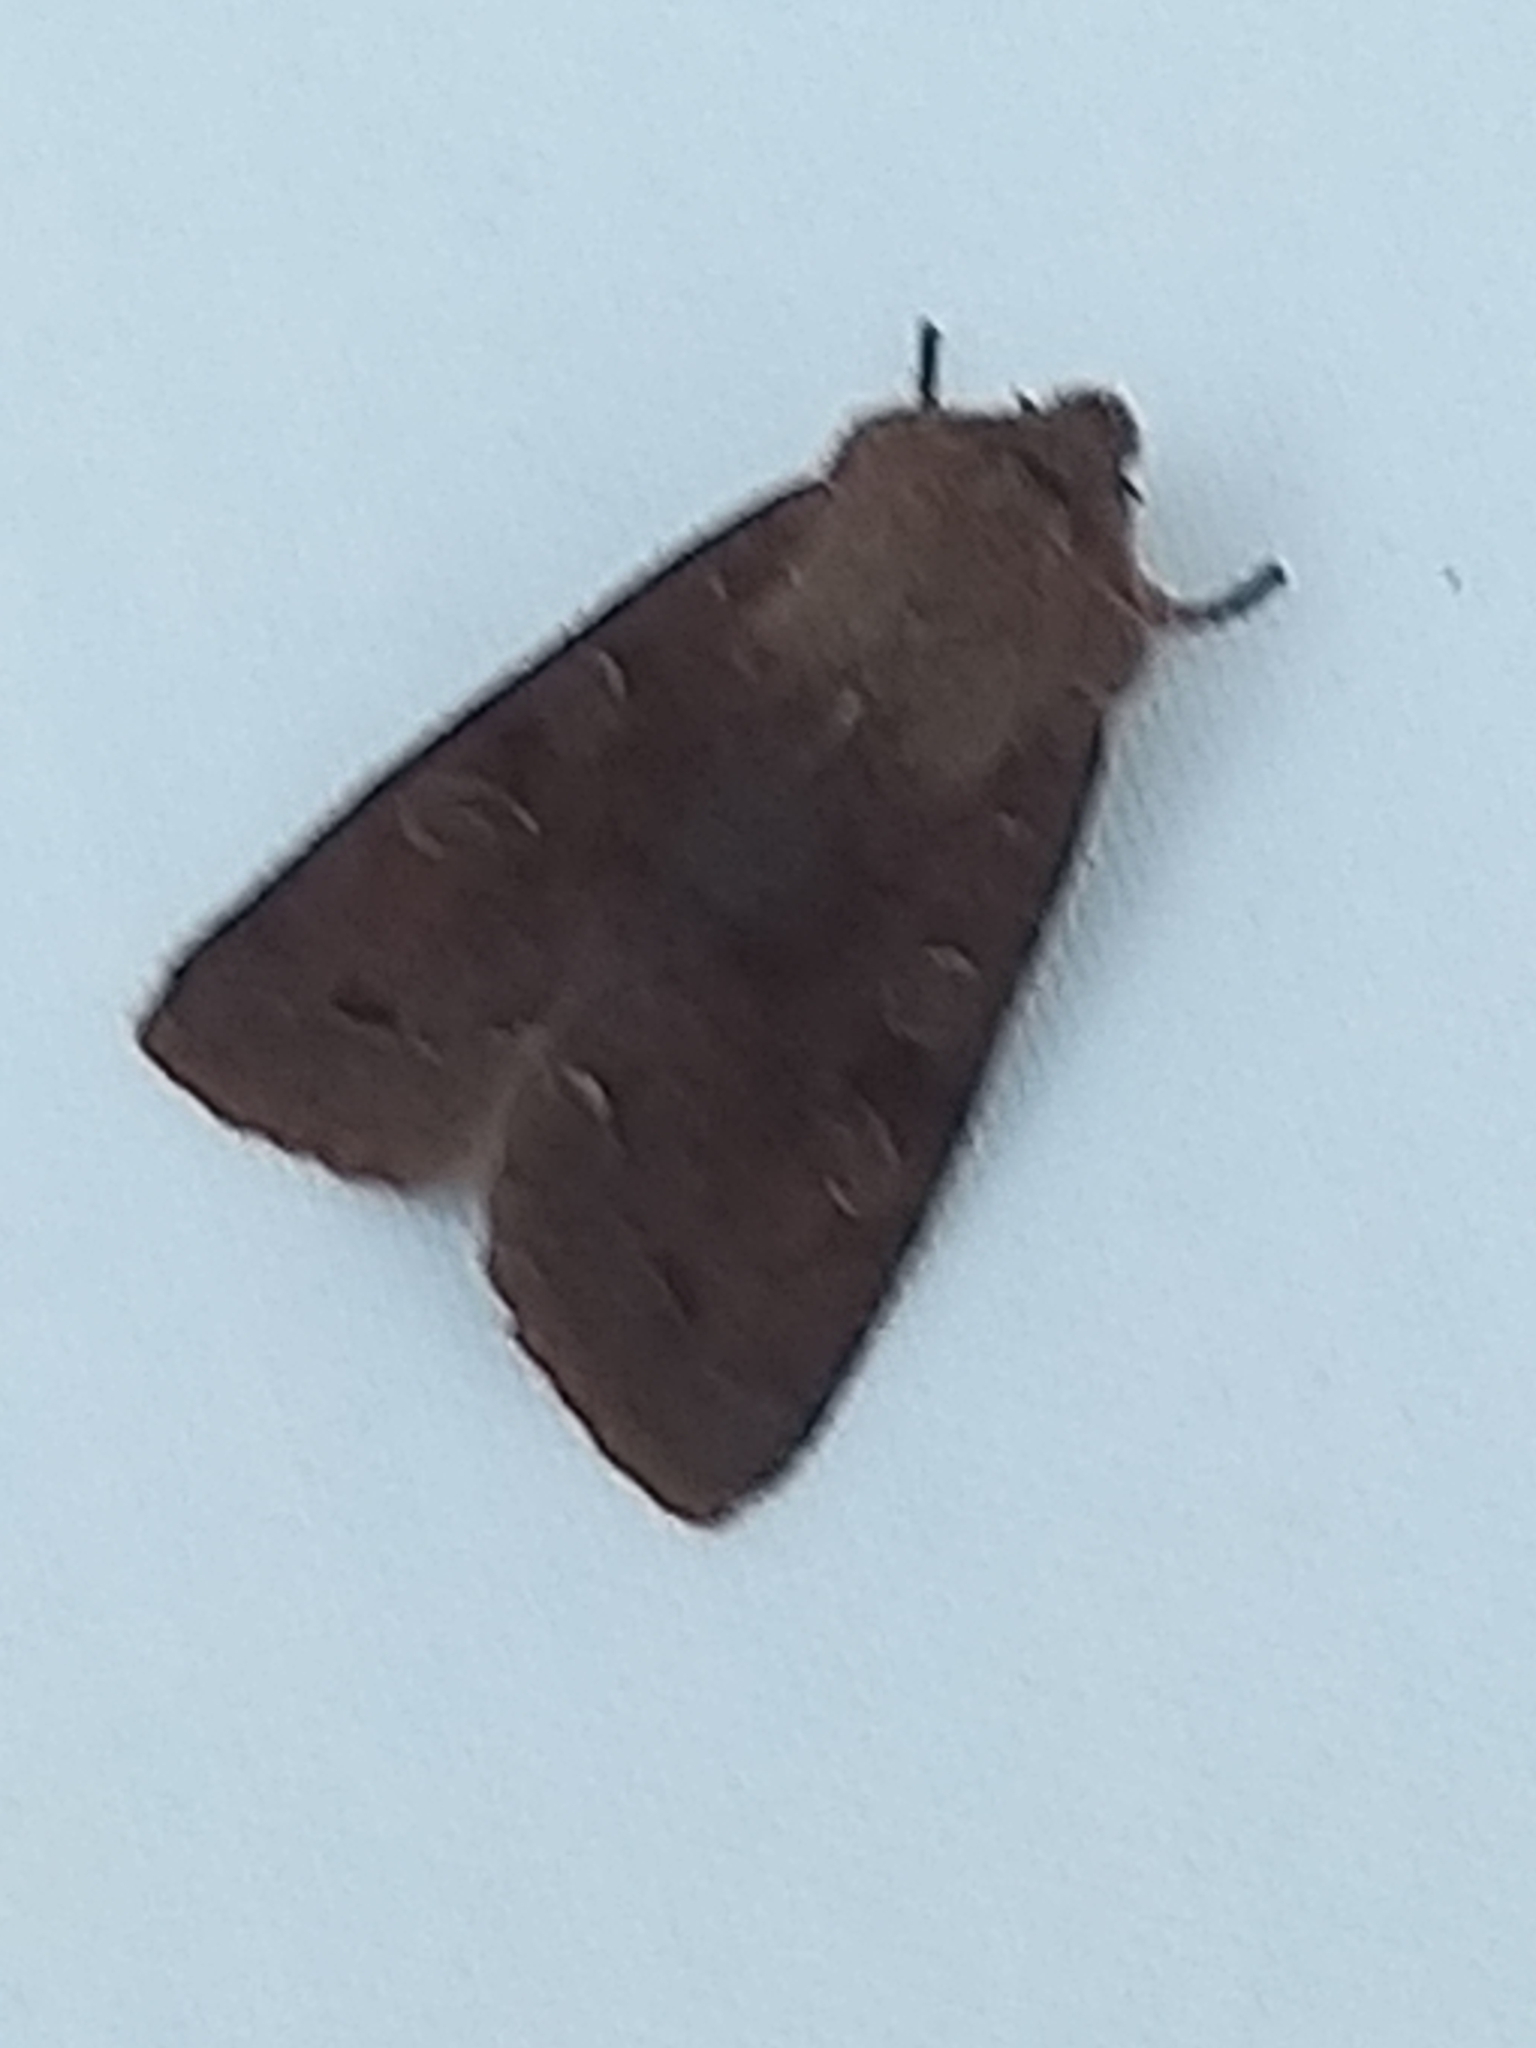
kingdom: Animalia
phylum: Arthropoda
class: Insecta
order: Lepidoptera
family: Noctuidae
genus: Orthosia
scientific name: Orthosia incerta
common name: Clouded drab
